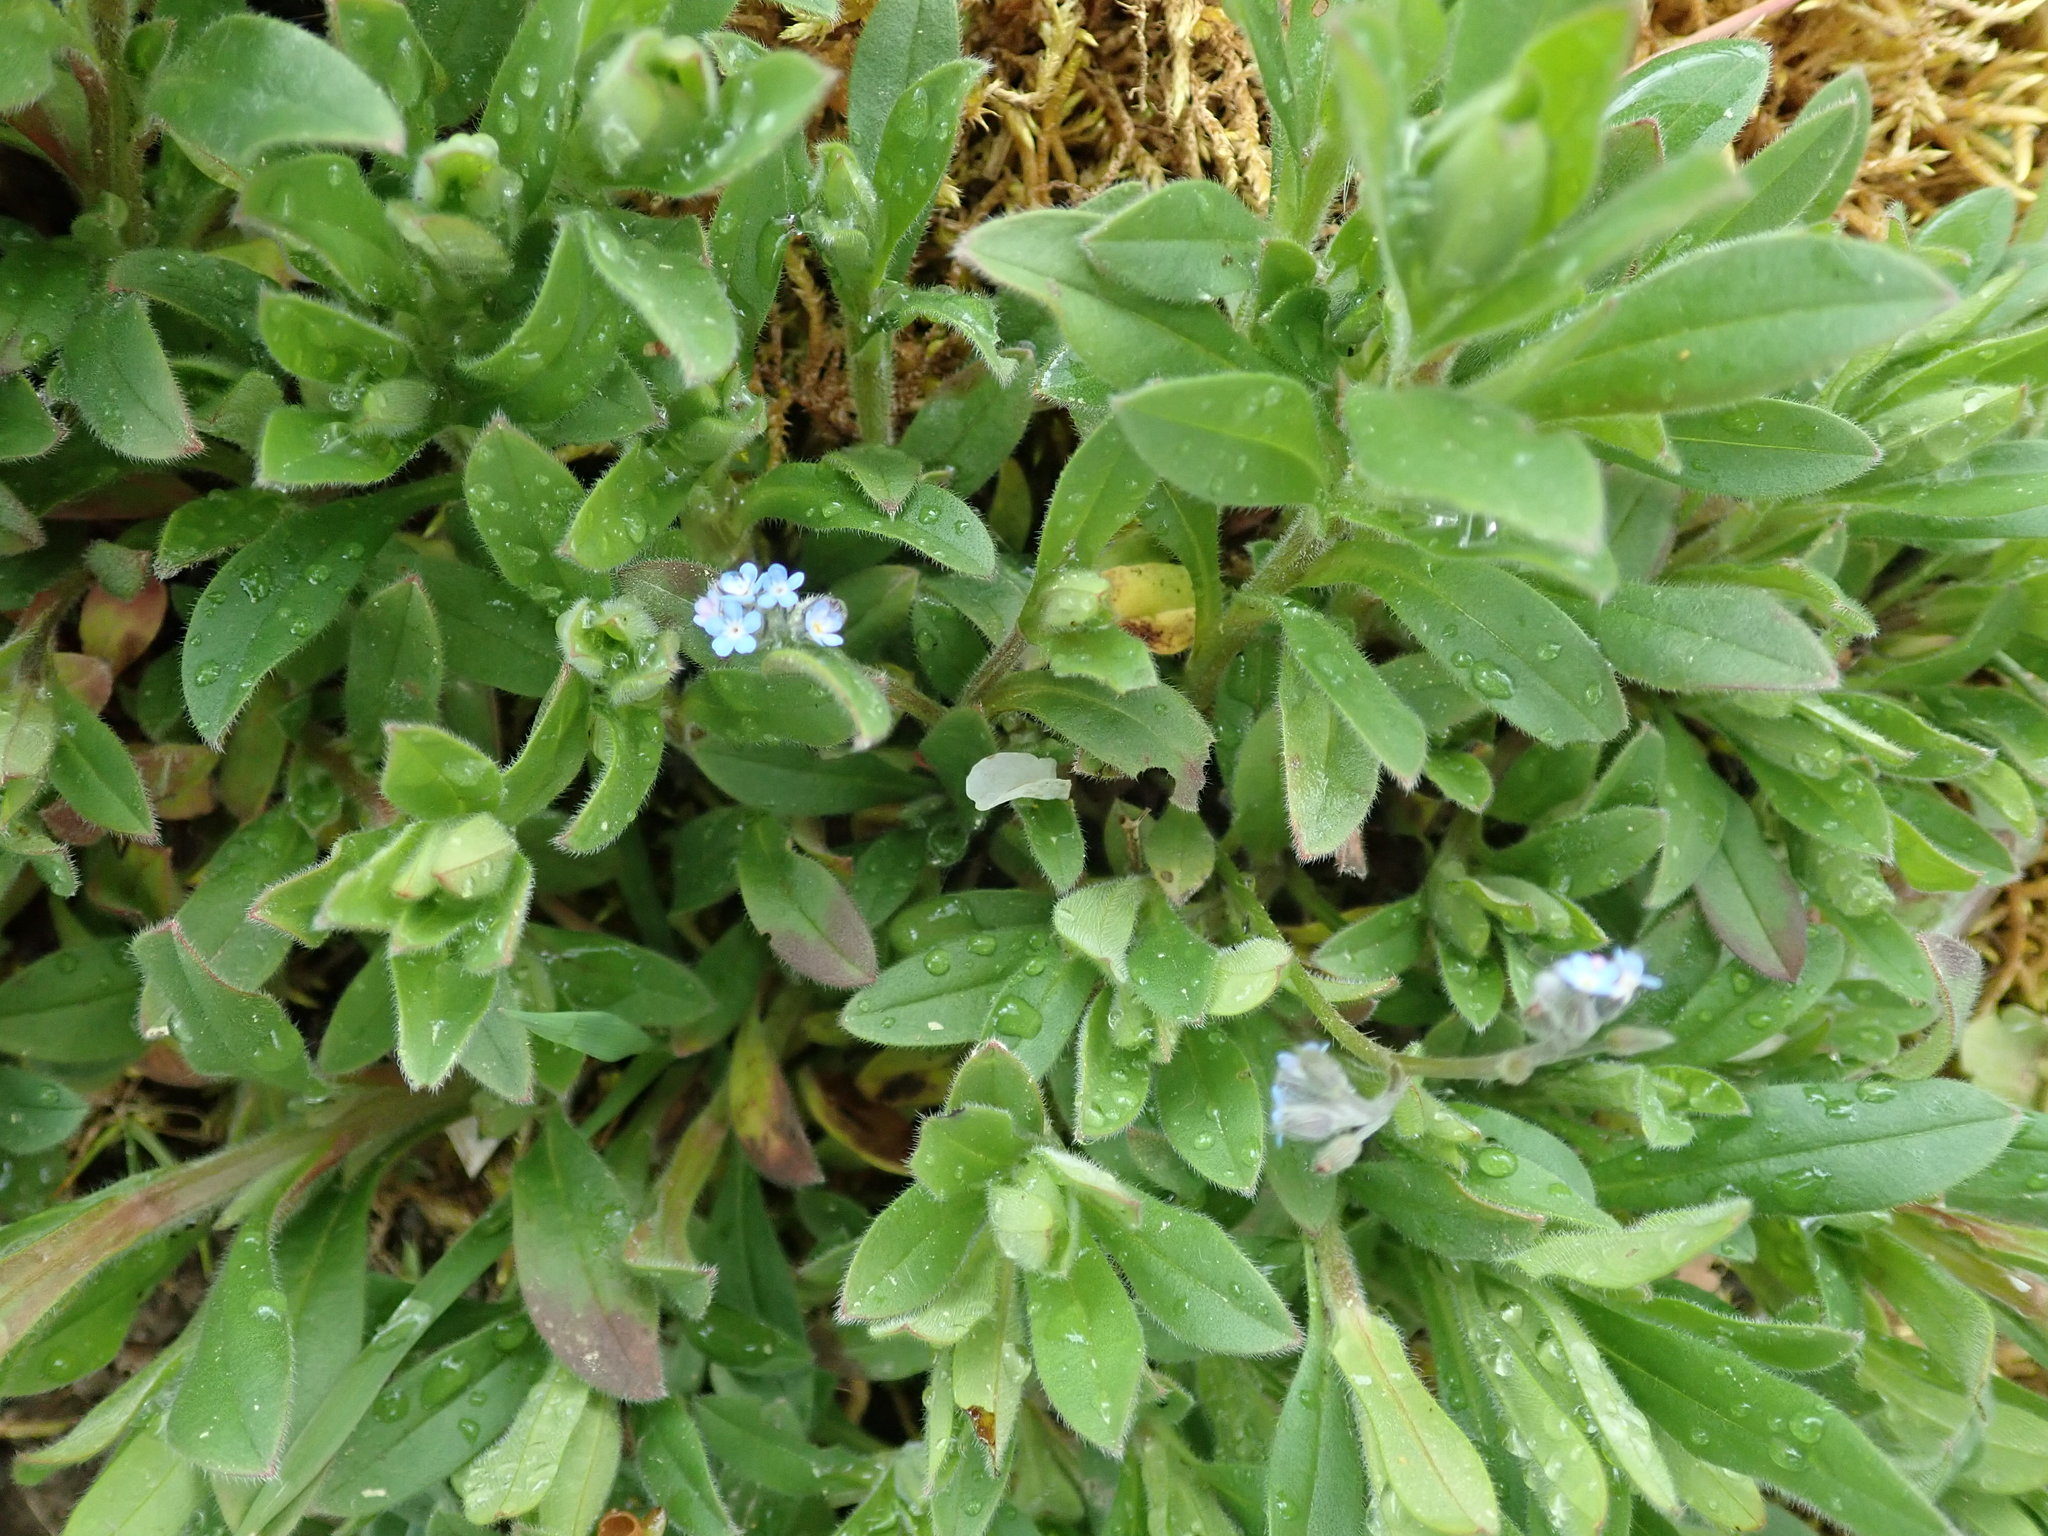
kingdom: Plantae
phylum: Tracheophyta
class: Magnoliopsida
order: Boraginales
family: Boraginaceae
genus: Myosotis
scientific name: Myosotis arvensis
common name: Field forget-me-not
